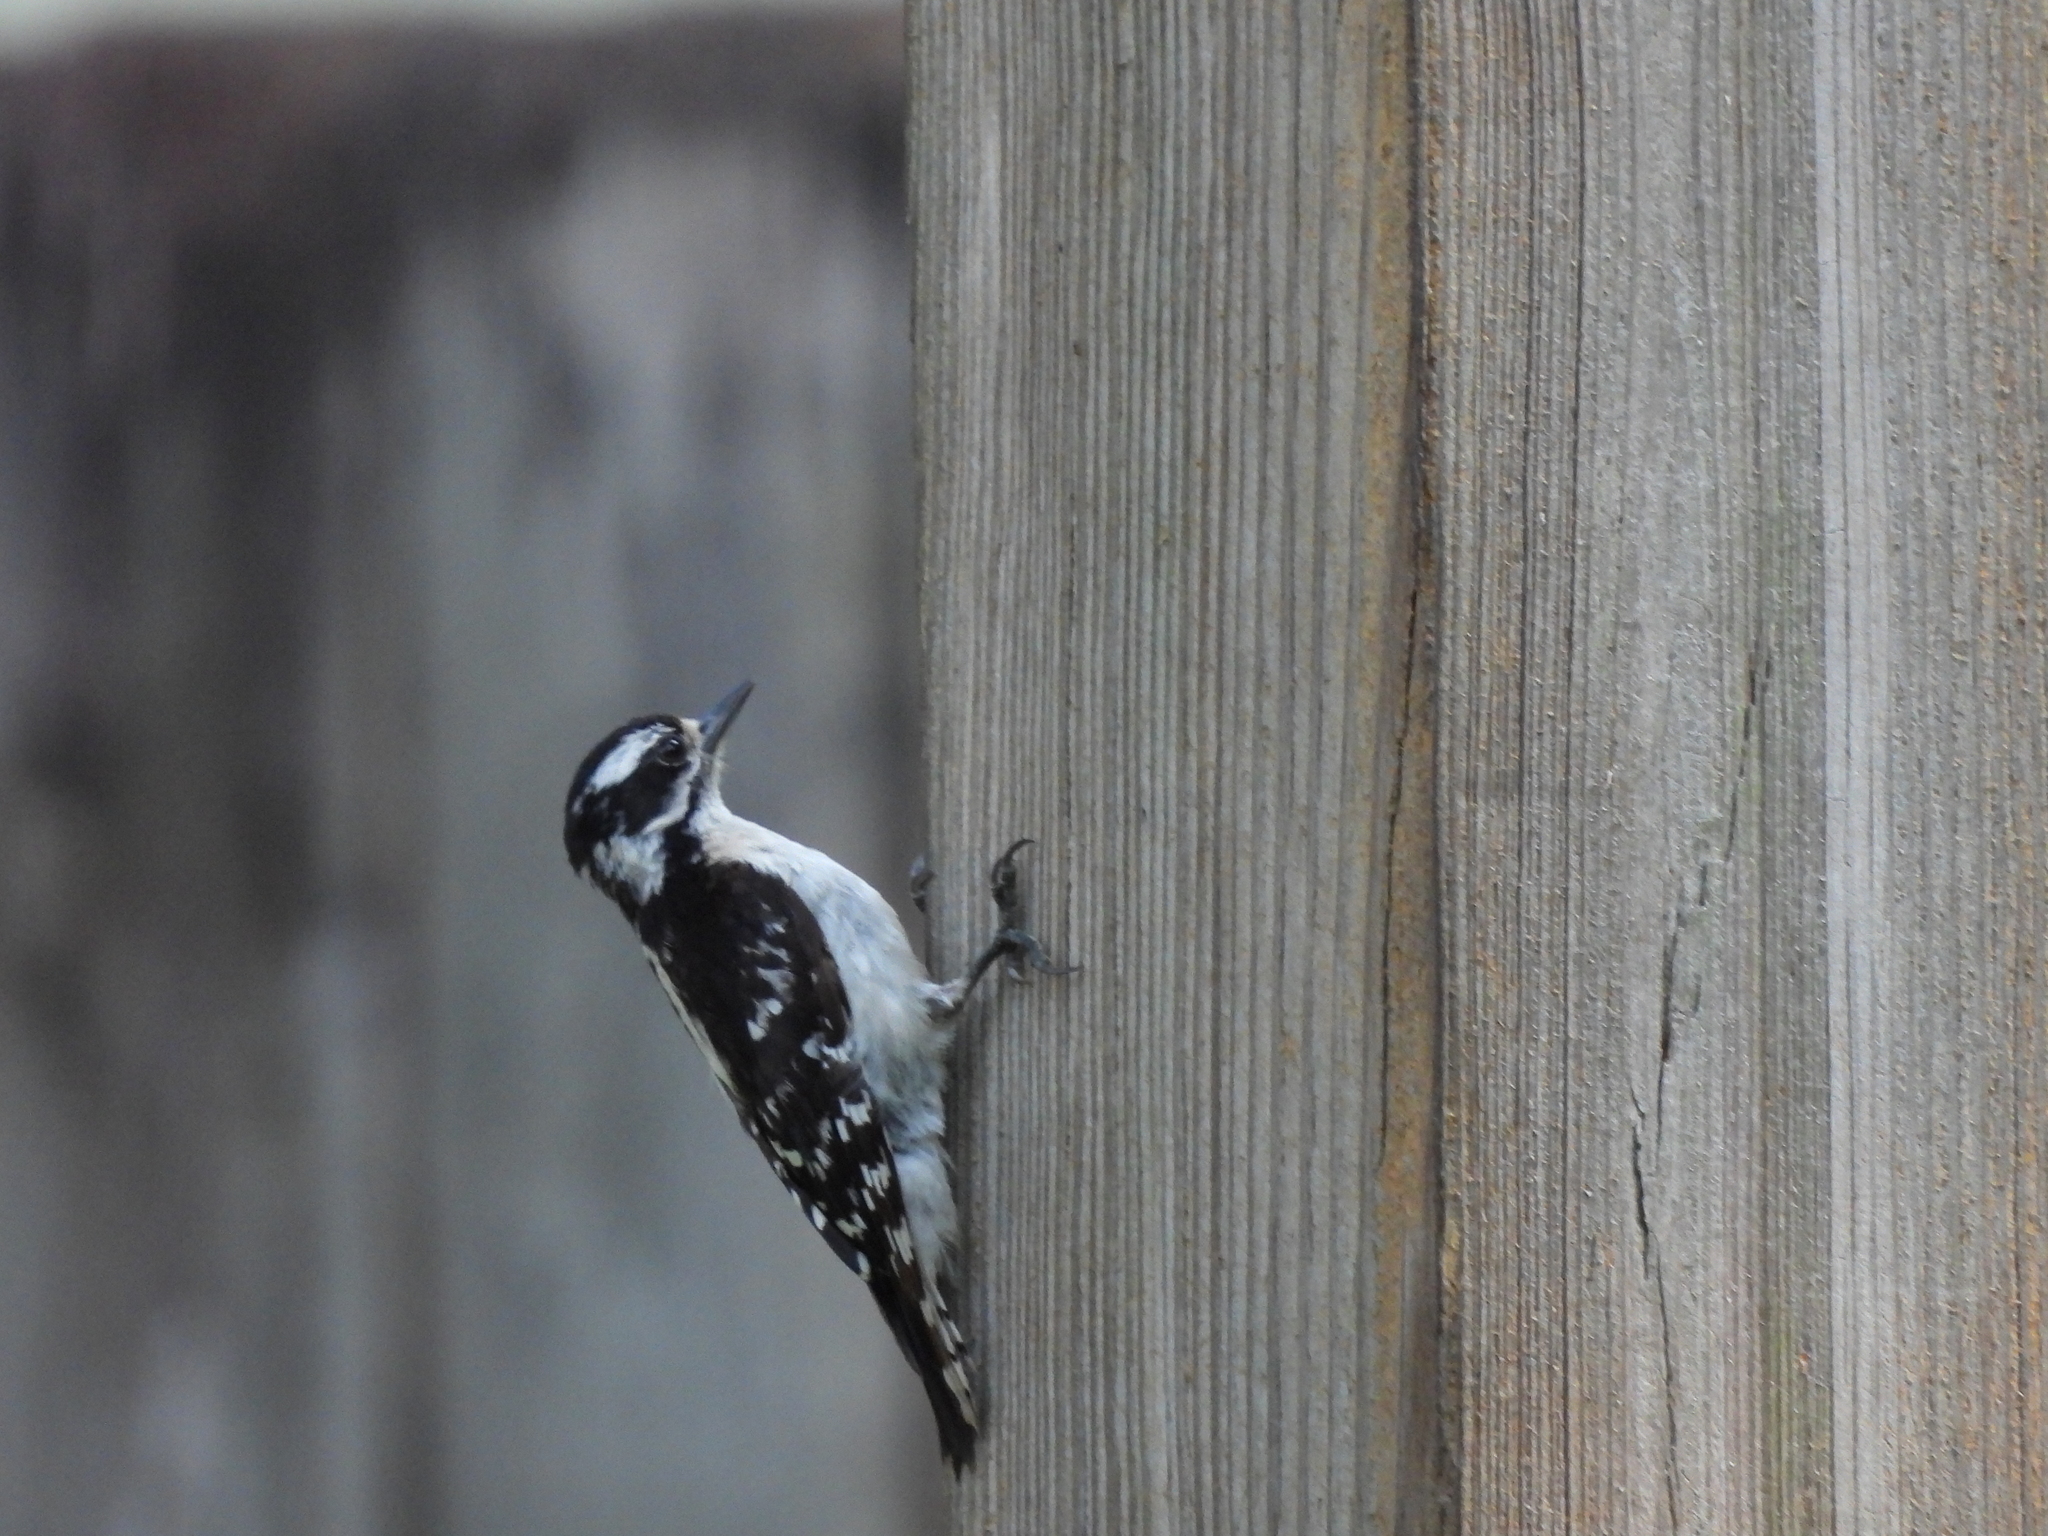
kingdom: Animalia
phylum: Chordata
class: Aves
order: Piciformes
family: Picidae
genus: Dryobates
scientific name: Dryobates pubescens
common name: Downy woodpecker
